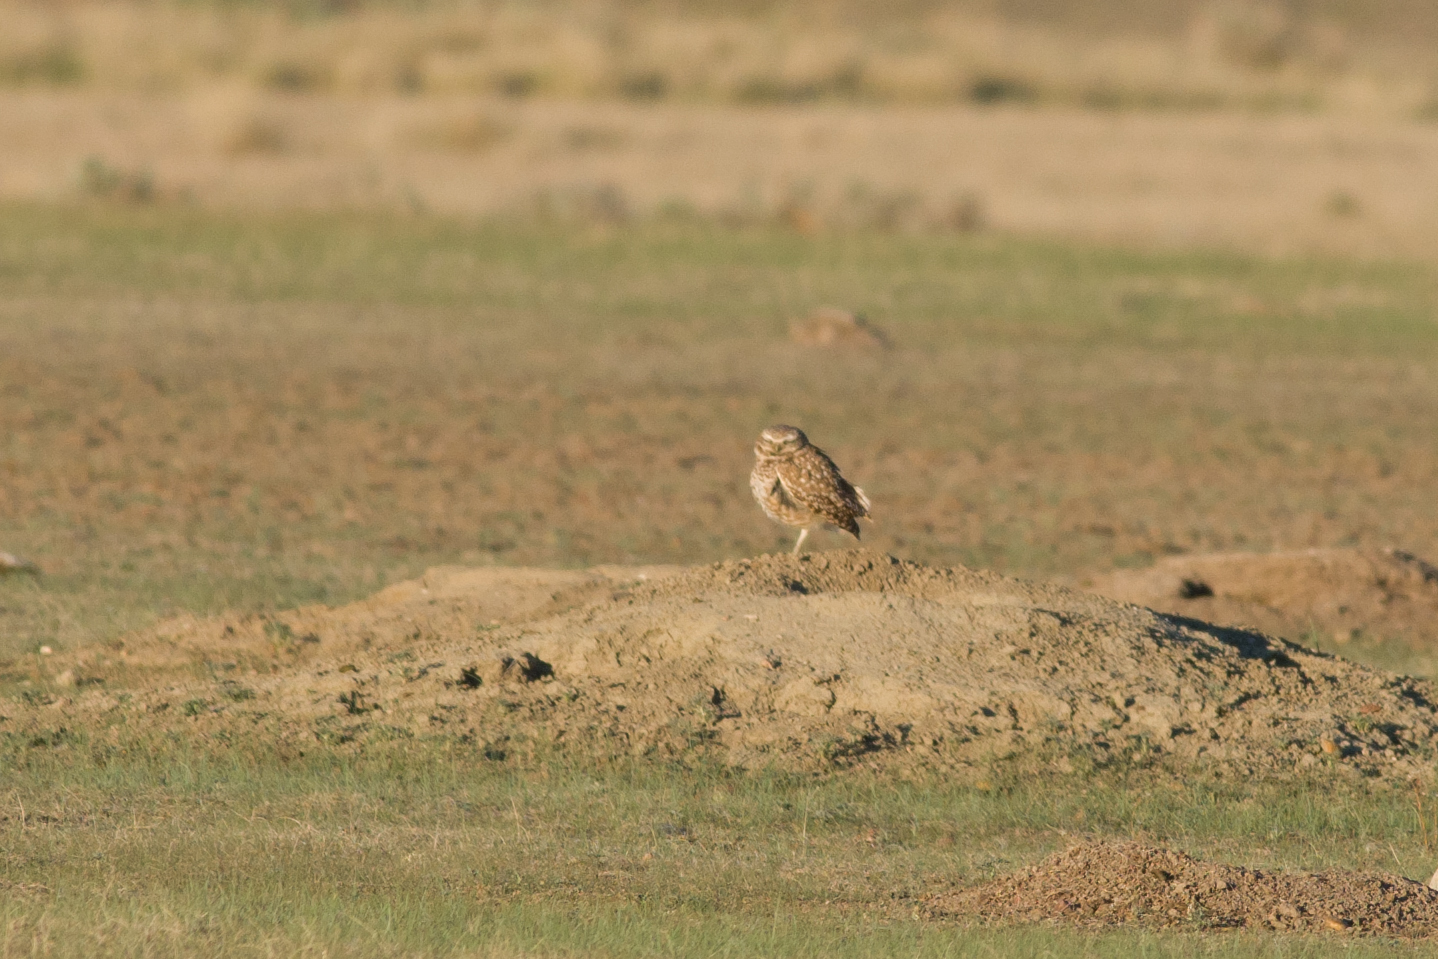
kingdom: Animalia
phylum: Chordata
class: Aves
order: Strigiformes
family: Strigidae
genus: Athene
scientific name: Athene cunicularia
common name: Burrowing owl
